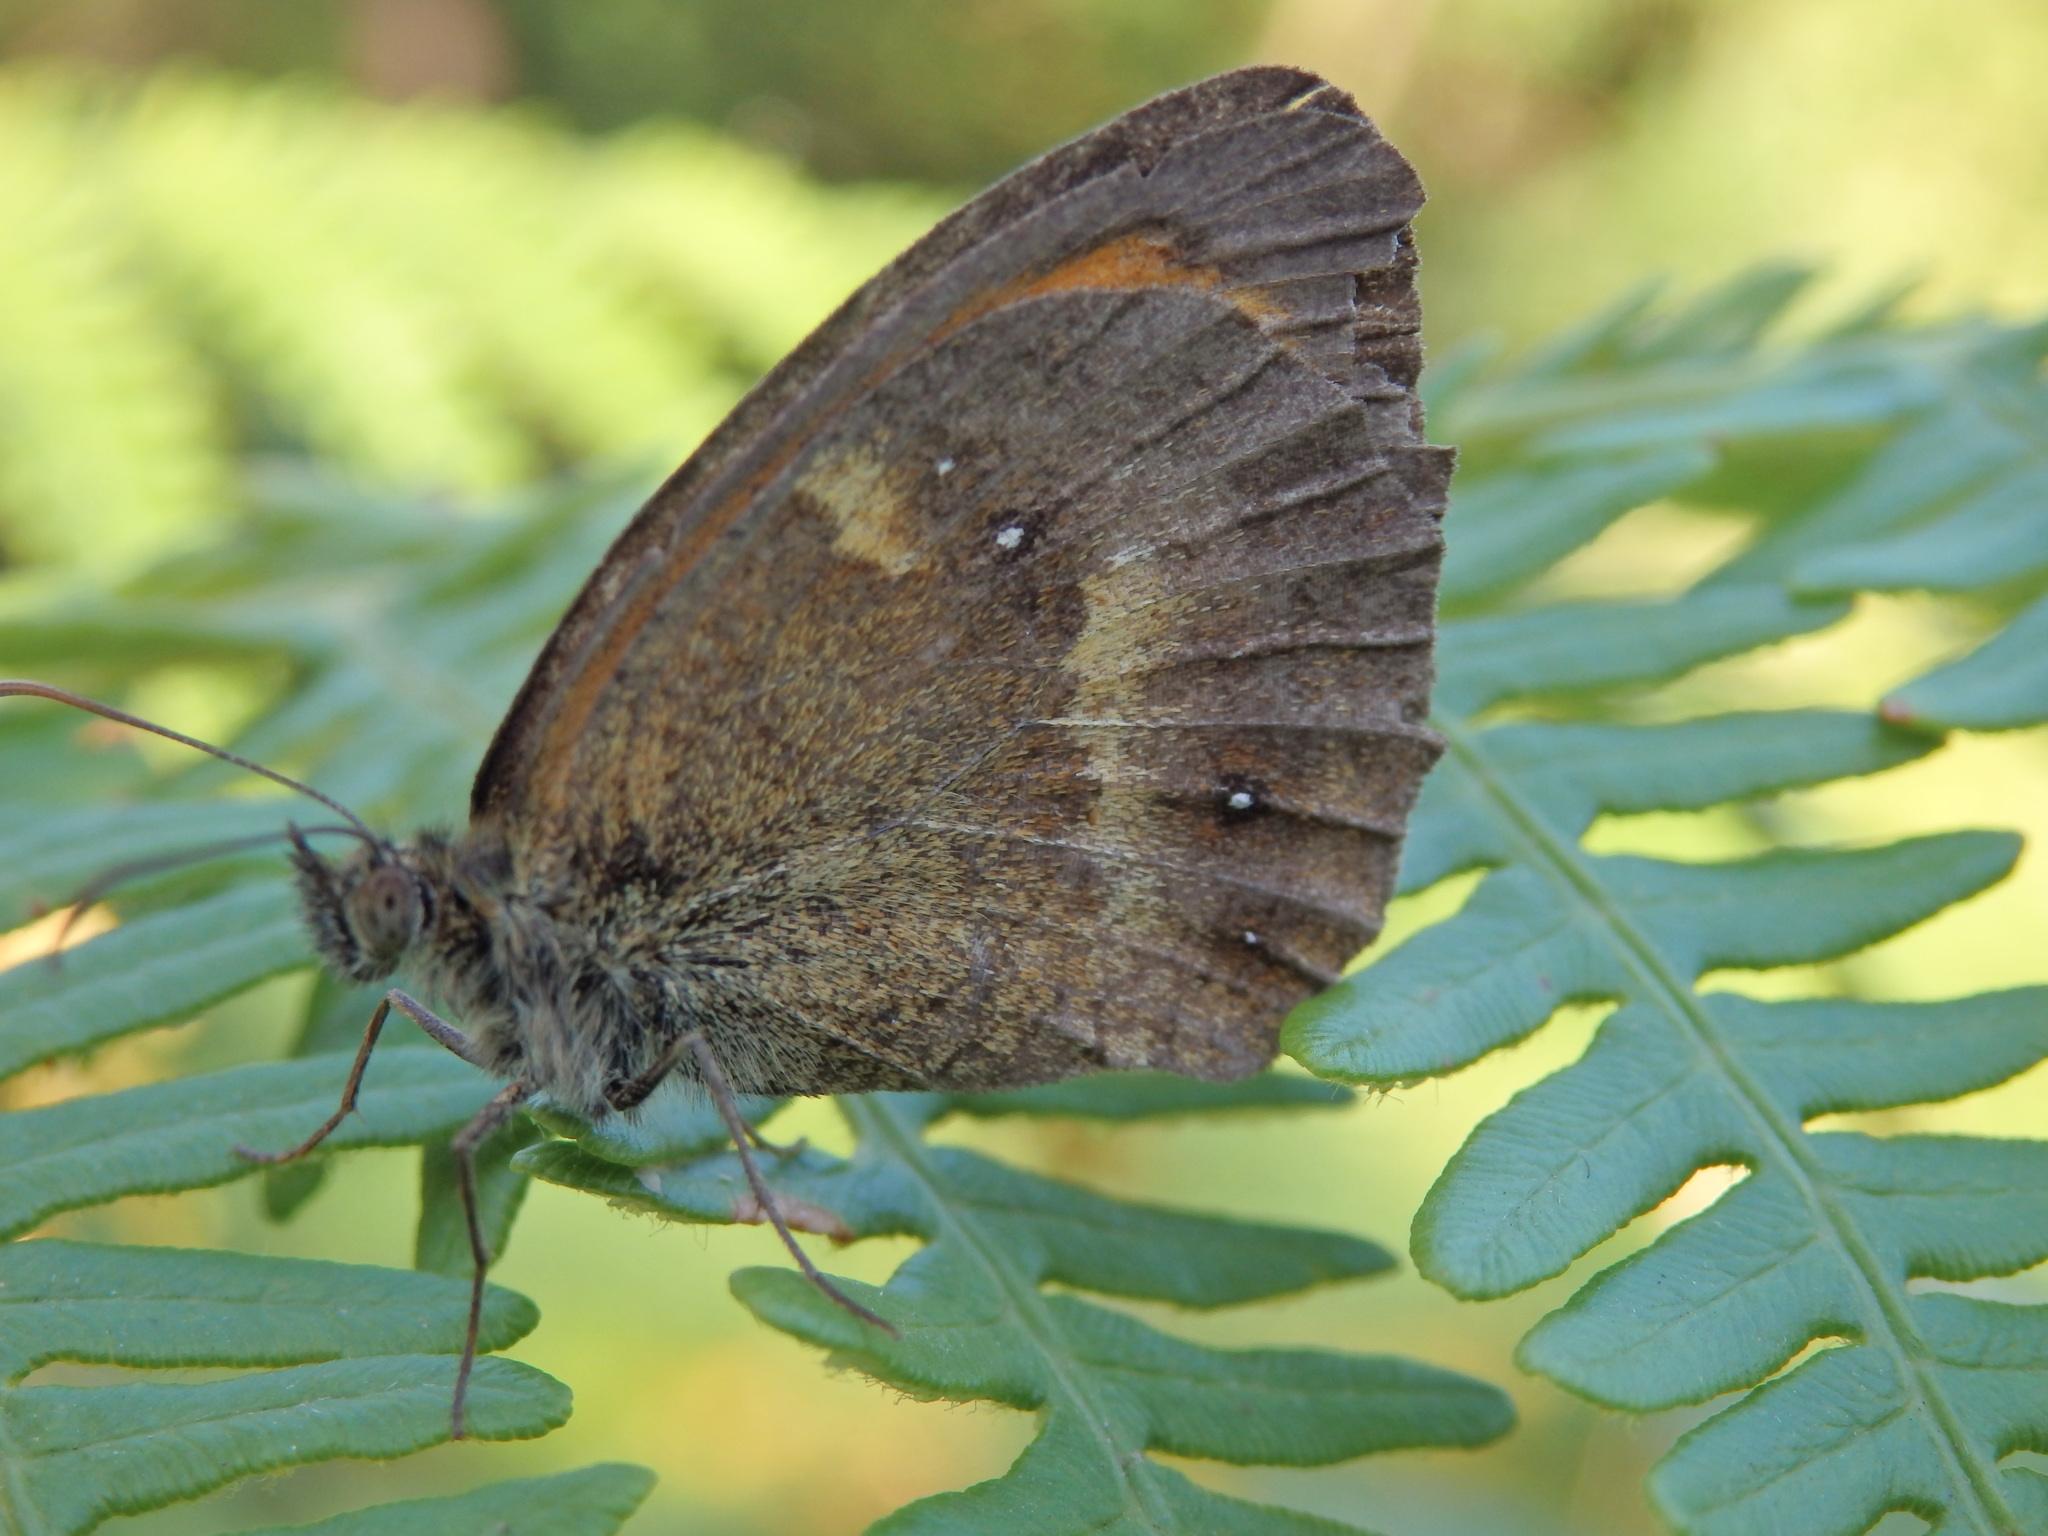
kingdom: Animalia
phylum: Arthropoda
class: Insecta
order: Lepidoptera
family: Nymphalidae
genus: Pyronia
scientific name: Pyronia tithonus
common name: Gatekeeper
